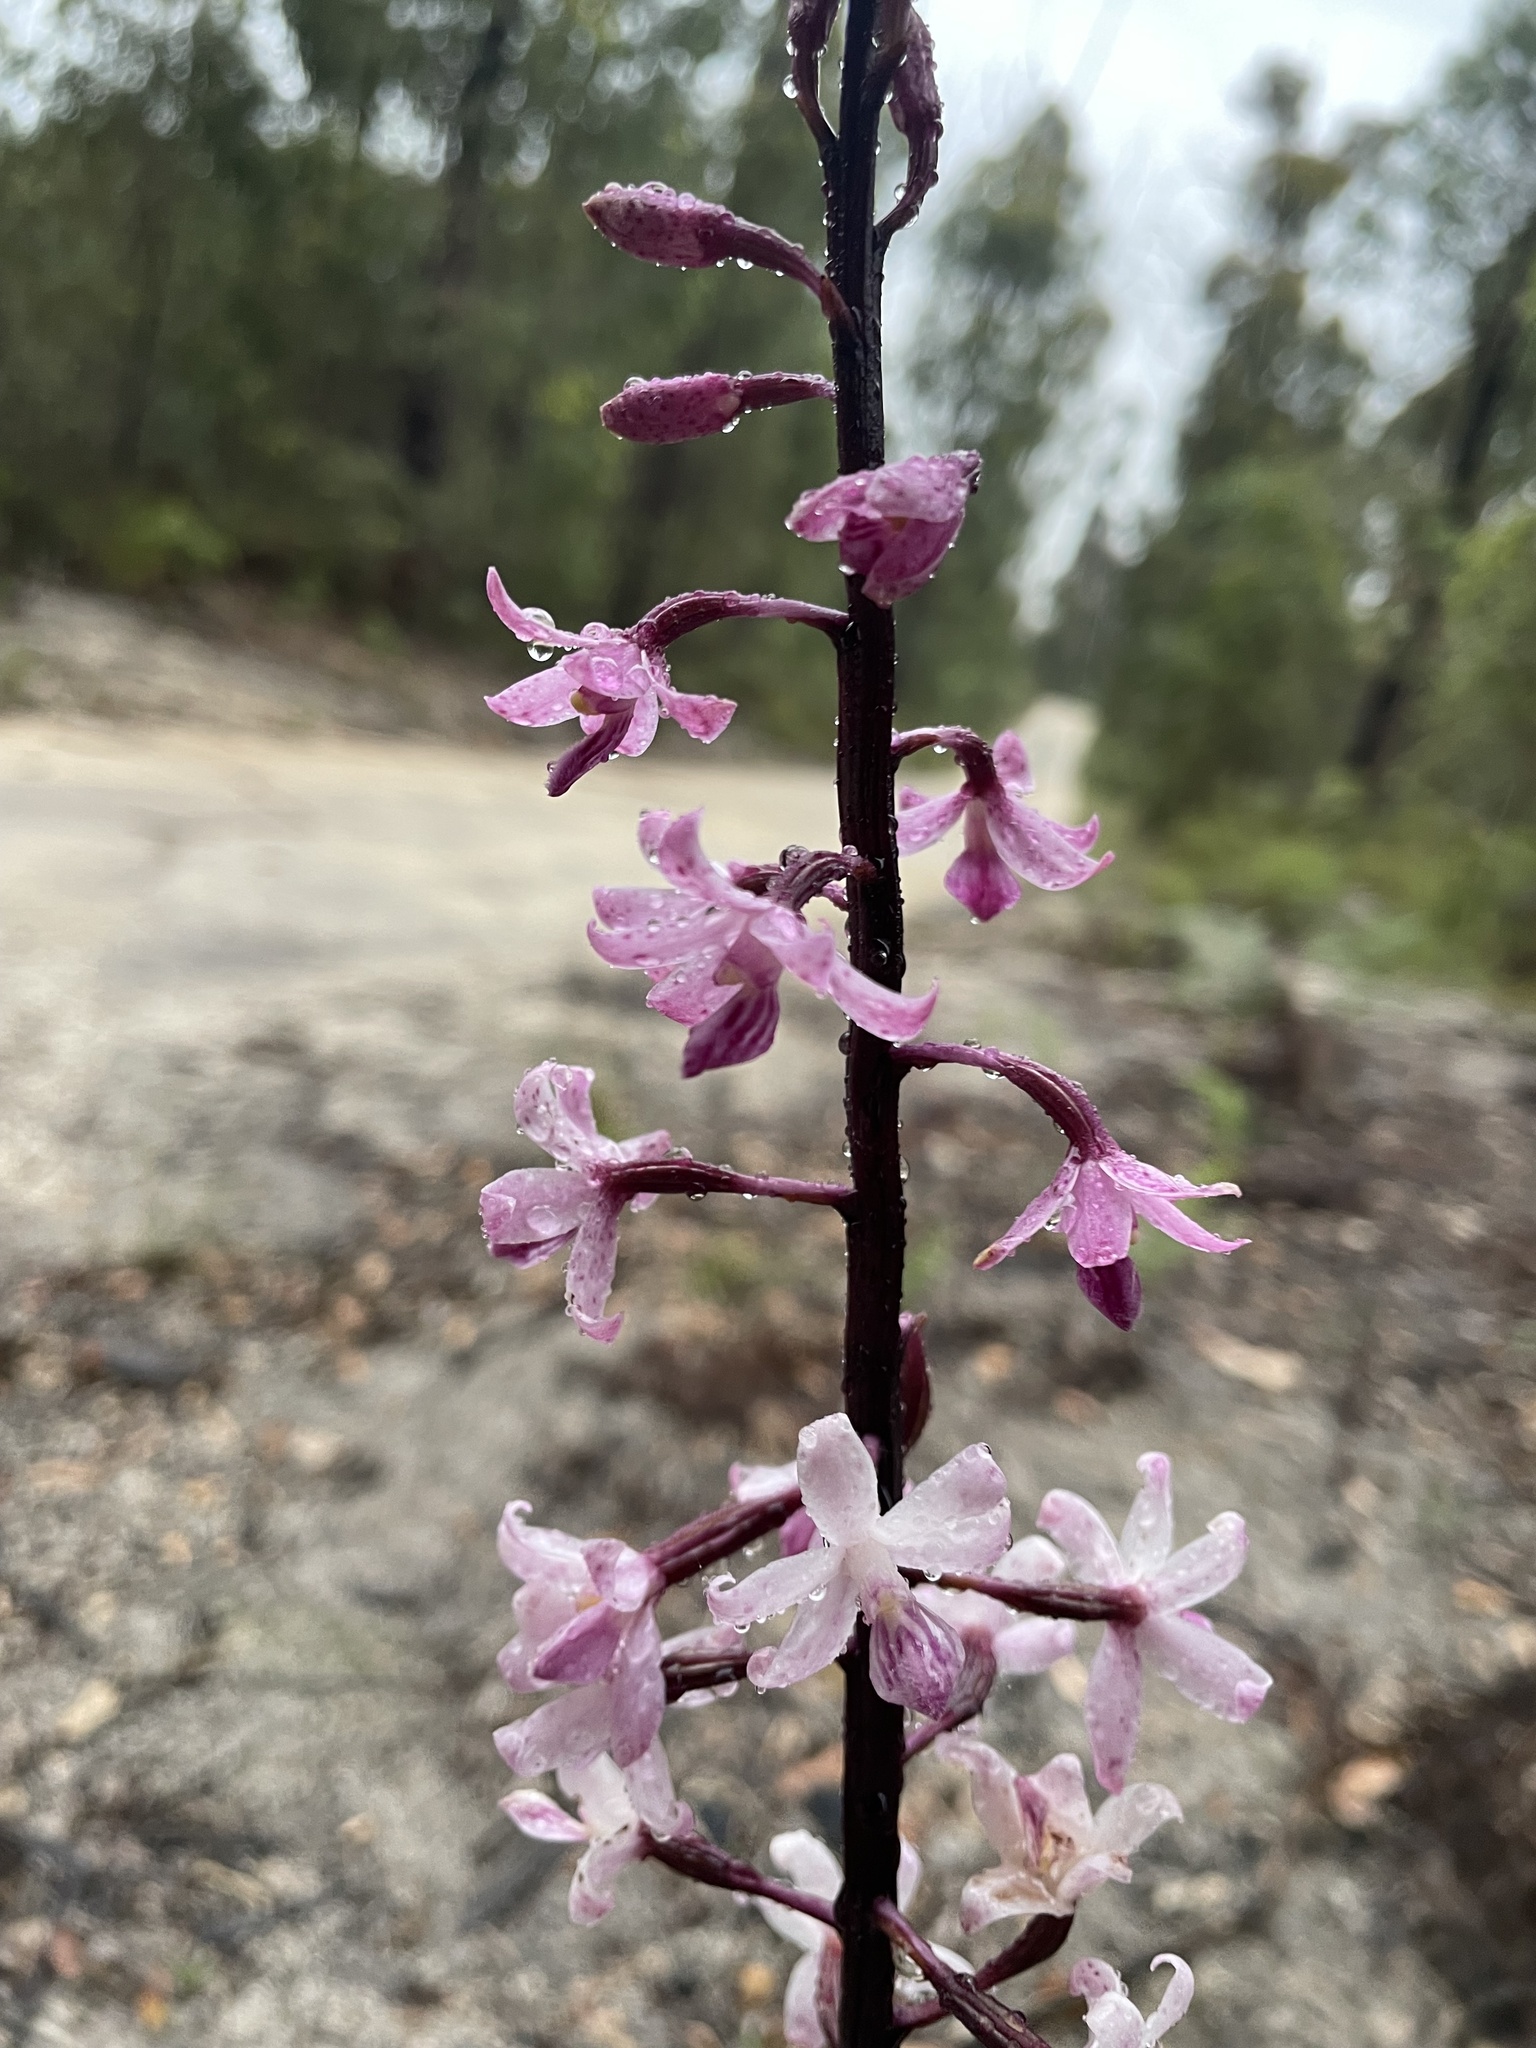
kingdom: Plantae
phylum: Tracheophyta
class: Liliopsida
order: Asparagales
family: Orchidaceae
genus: Dipodium
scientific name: Dipodium roseum
